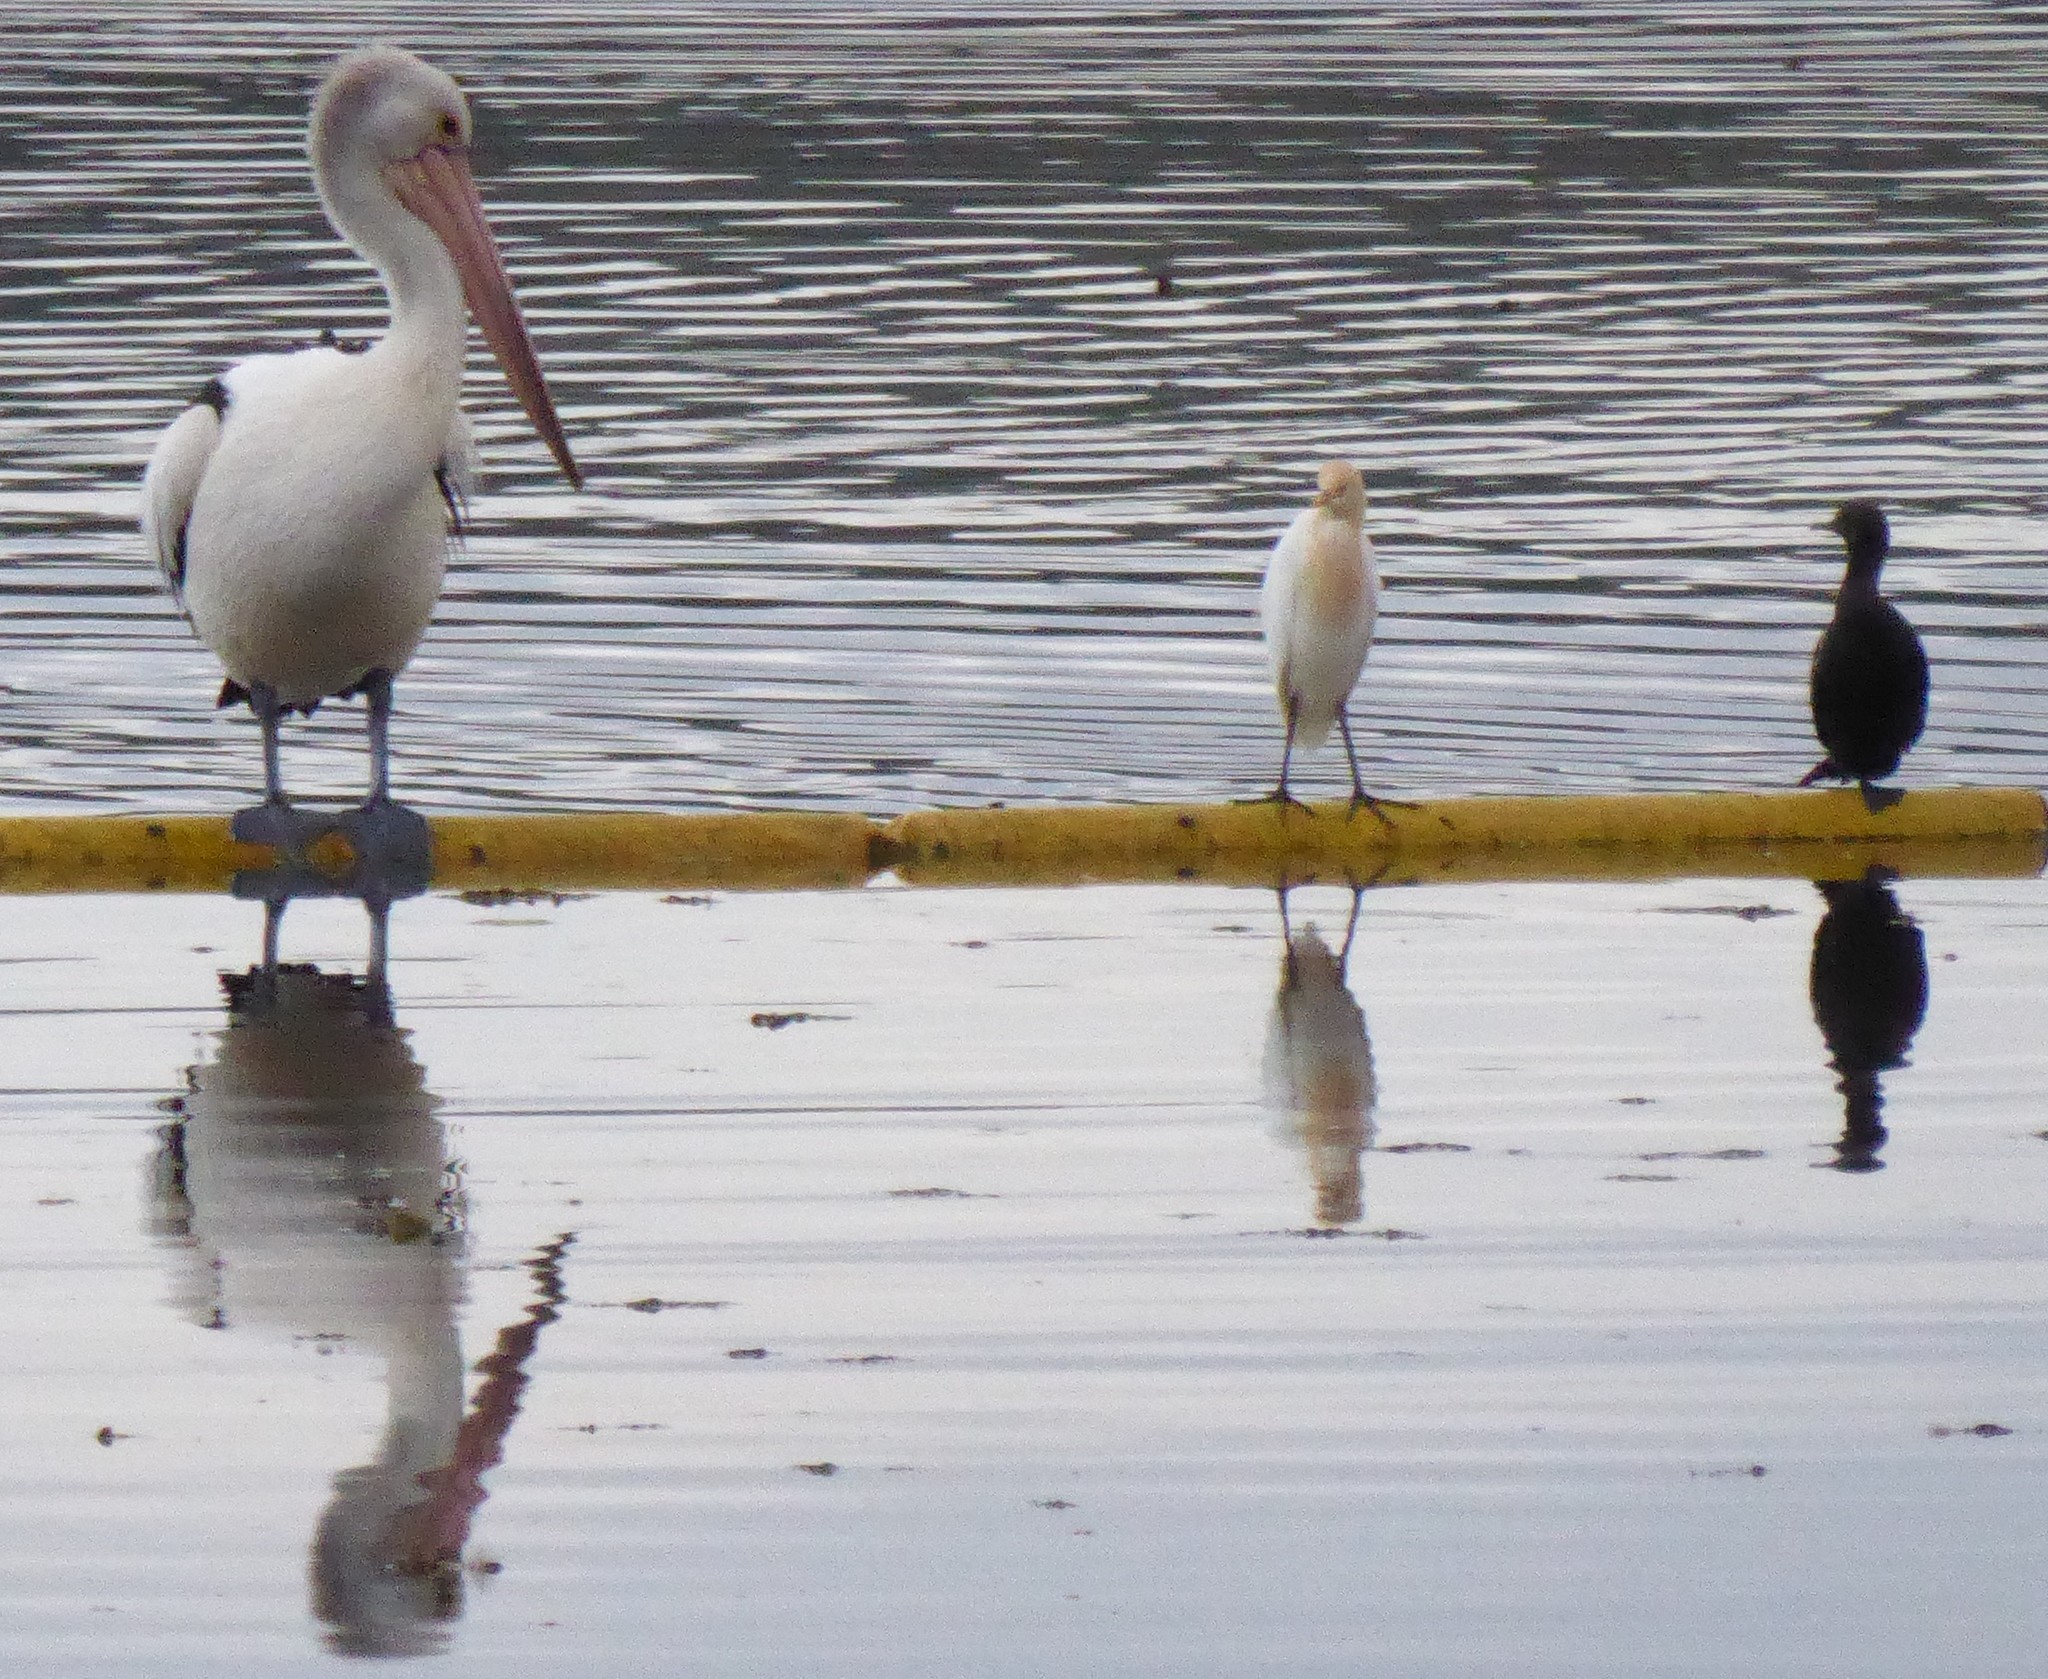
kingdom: Animalia
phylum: Chordata
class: Aves
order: Pelecaniformes
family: Ardeidae
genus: Bubulcus
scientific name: Bubulcus coromandus
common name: Eastern cattle egret
